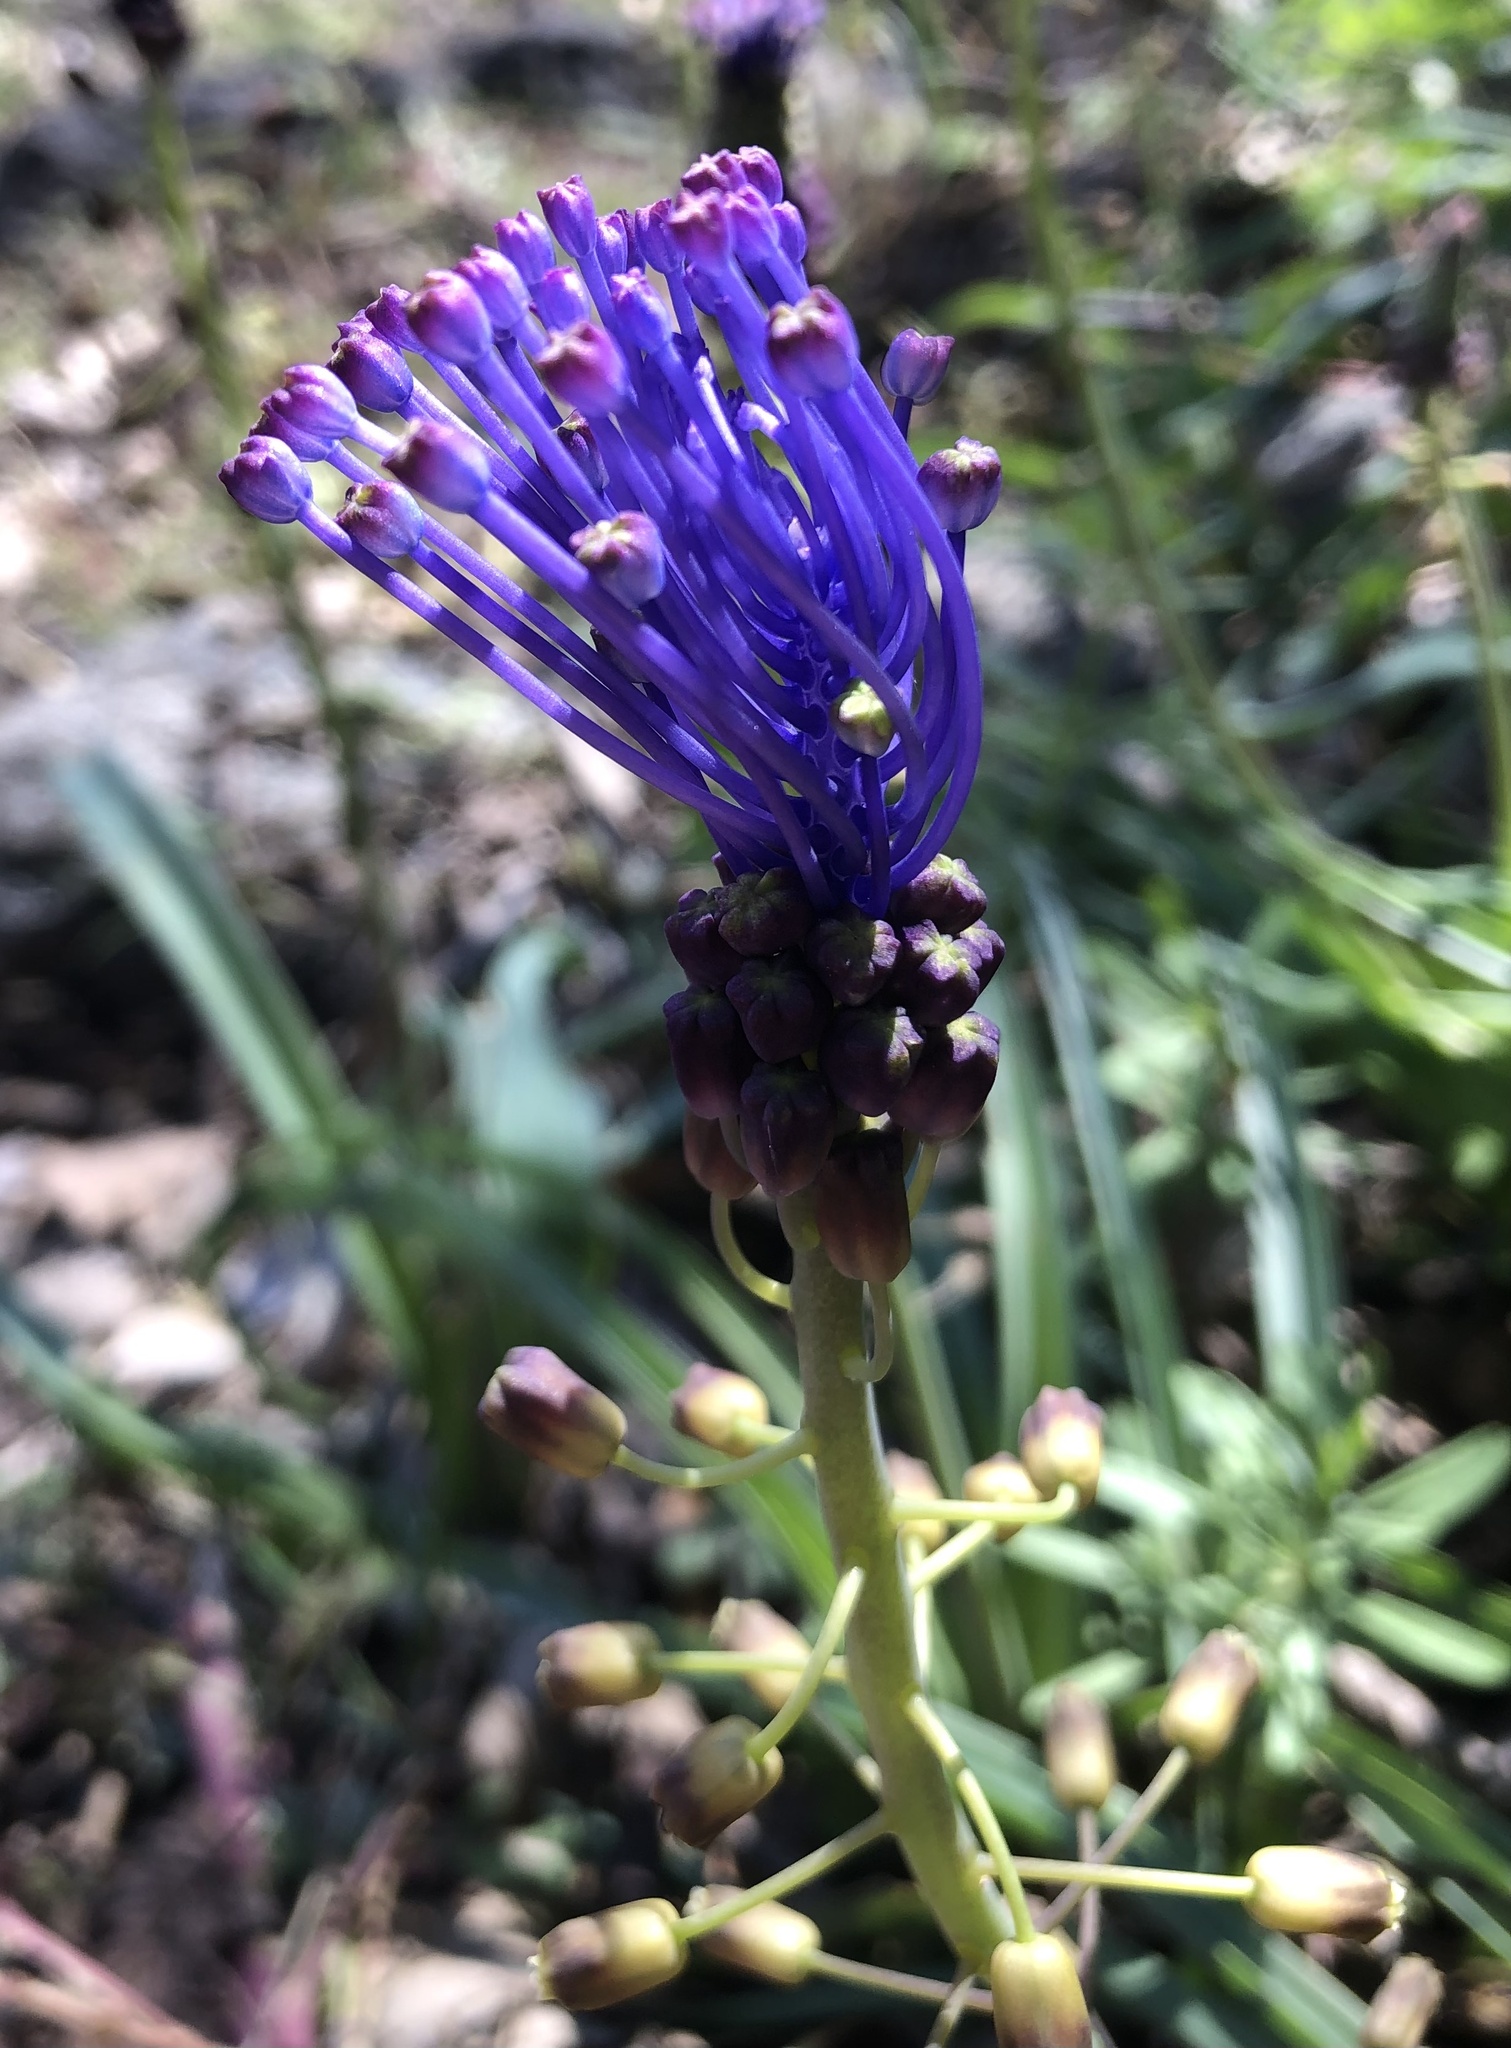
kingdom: Plantae
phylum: Tracheophyta
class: Liliopsida
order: Asparagales
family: Asparagaceae
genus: Muscari
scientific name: Muscari comosum
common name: Tassel hyacinth
